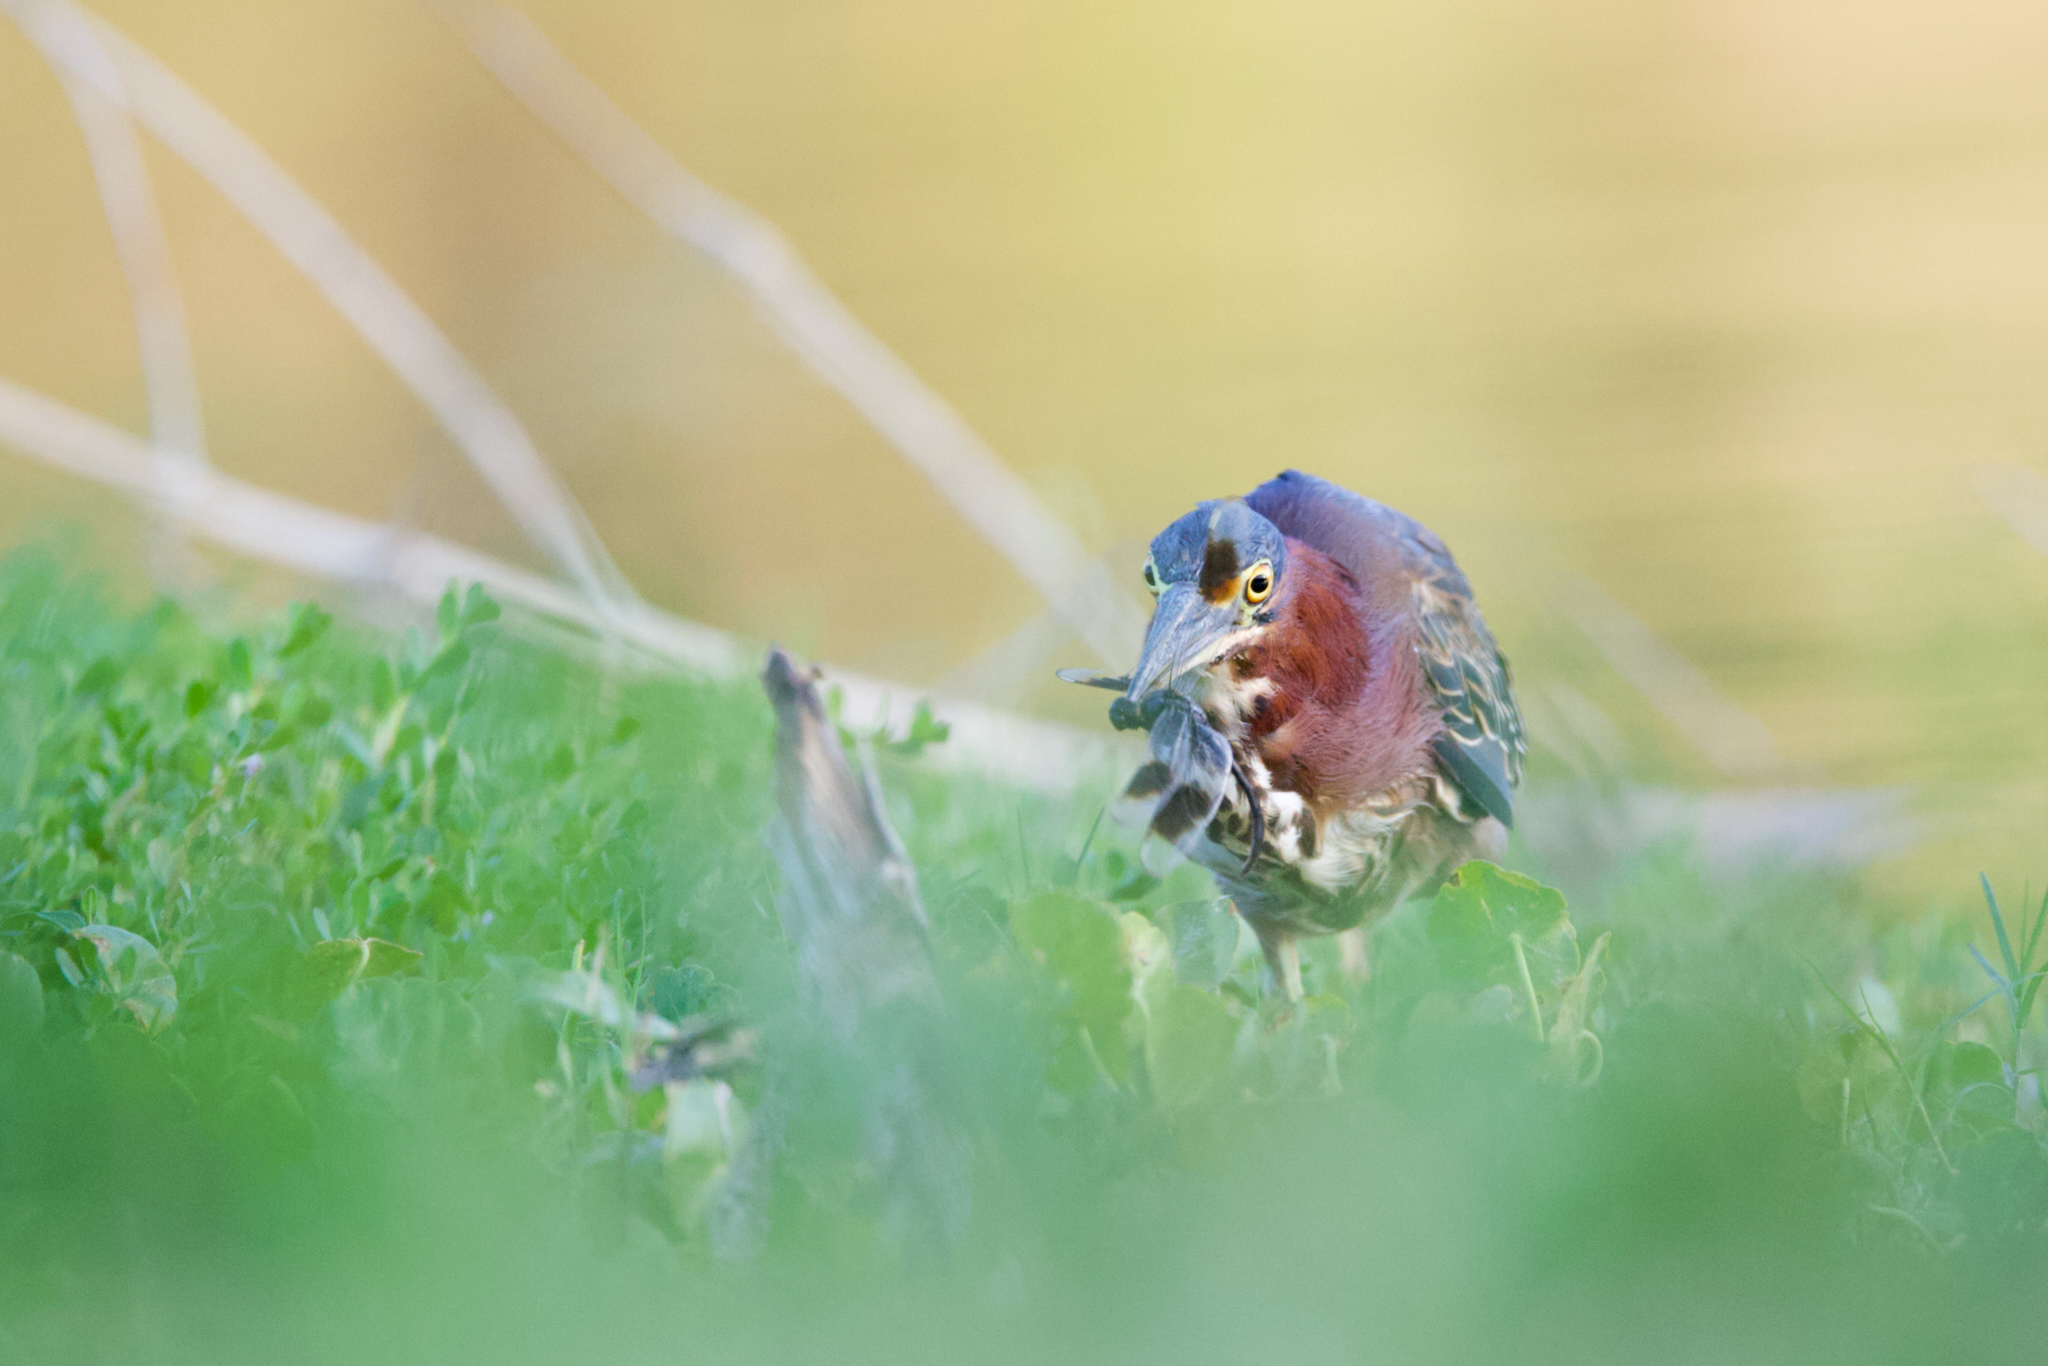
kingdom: Animalia
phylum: Chordata
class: Aves
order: Pelecaniformes
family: Ardeidae
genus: Butorides
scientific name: Butorides virescens
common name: Green heron
